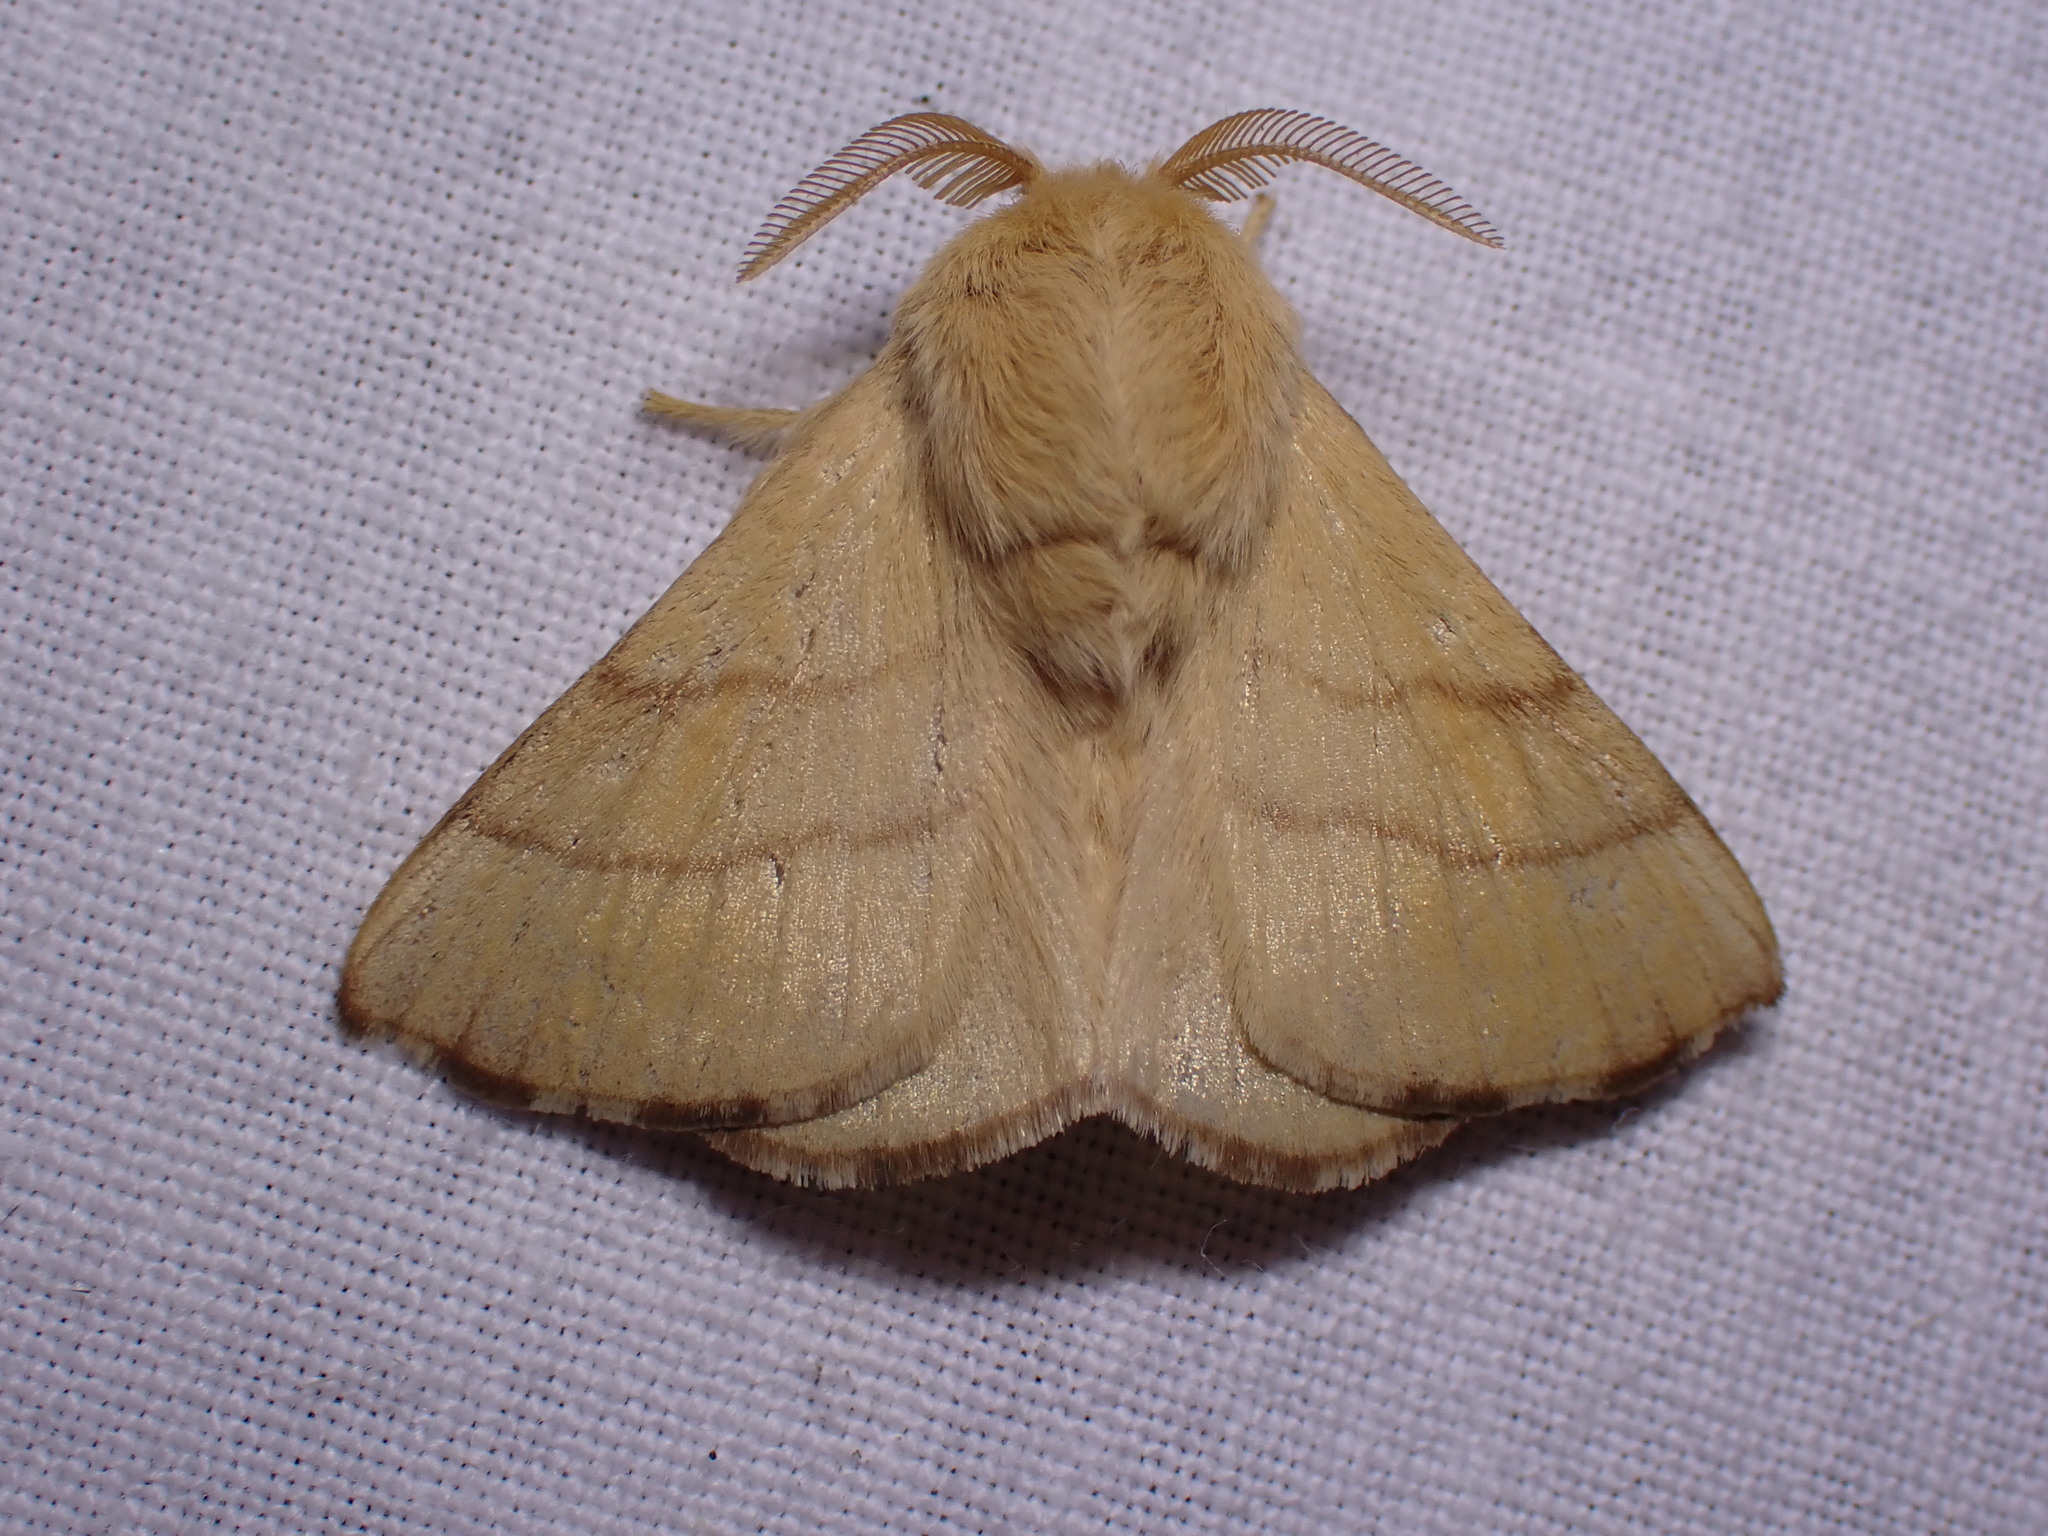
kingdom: Animalia
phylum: Arthropoda
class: Insecta
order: Lepidoptera
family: Lasiocampidae
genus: Malacosoma
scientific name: Malacosoma neustria
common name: The lackey
